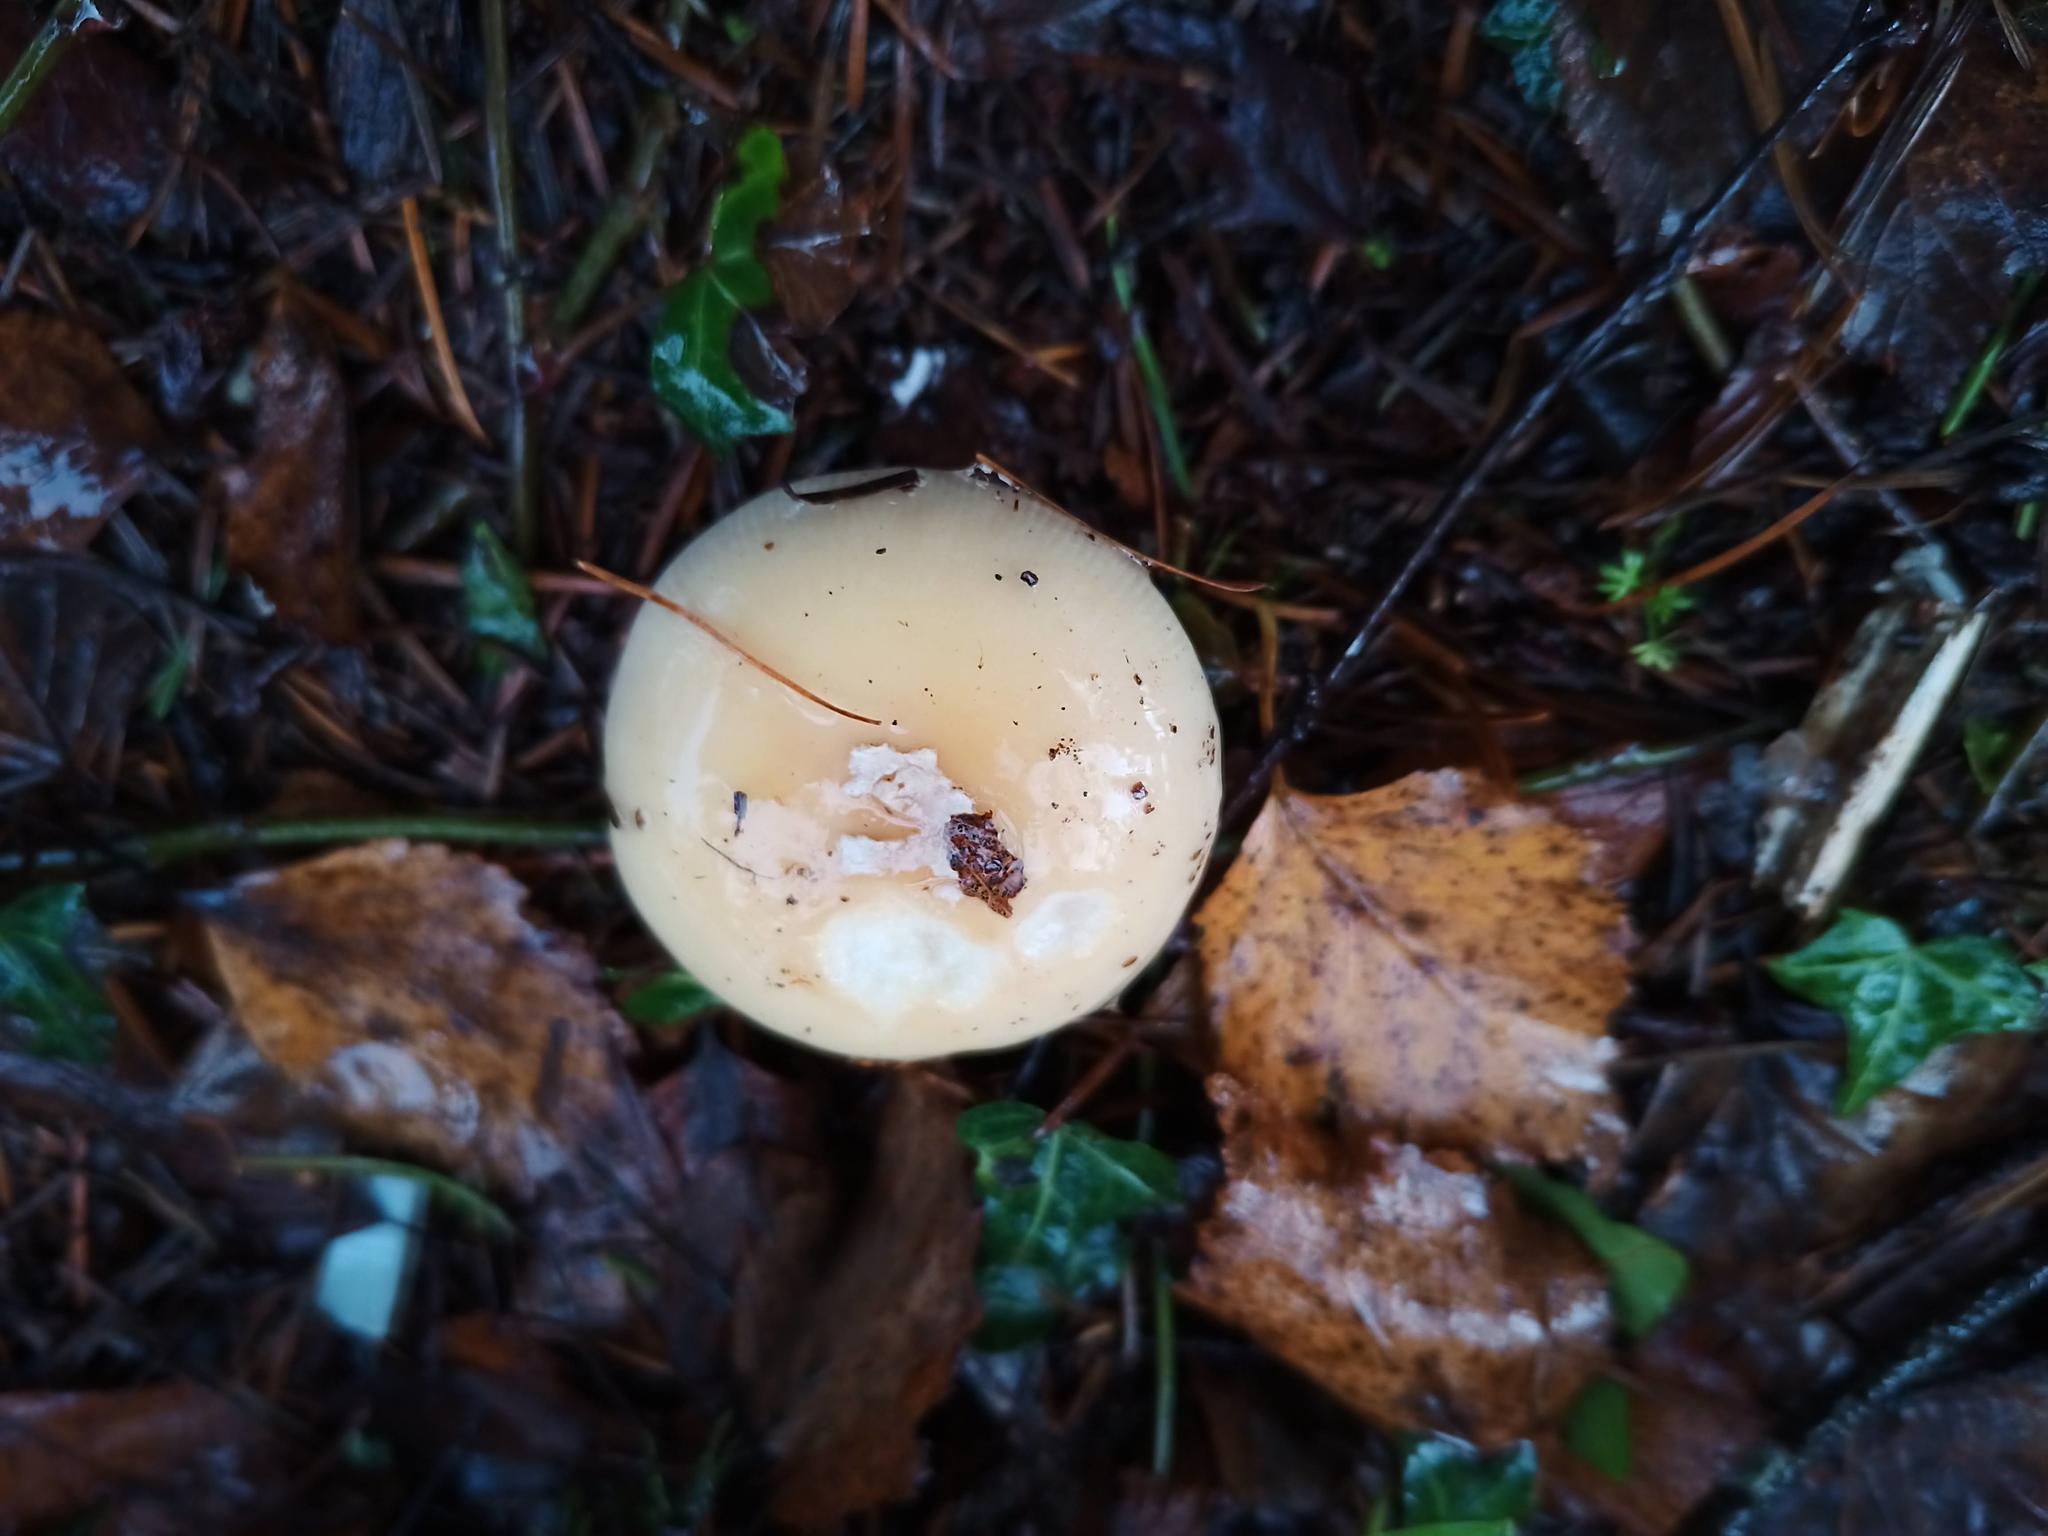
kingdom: Fungi
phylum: Basidiomycota
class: Agaricomycetes
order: Agaricales
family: Amanitaceae
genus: Amanita
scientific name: Amanita gemmata
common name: Jewelled amanita
